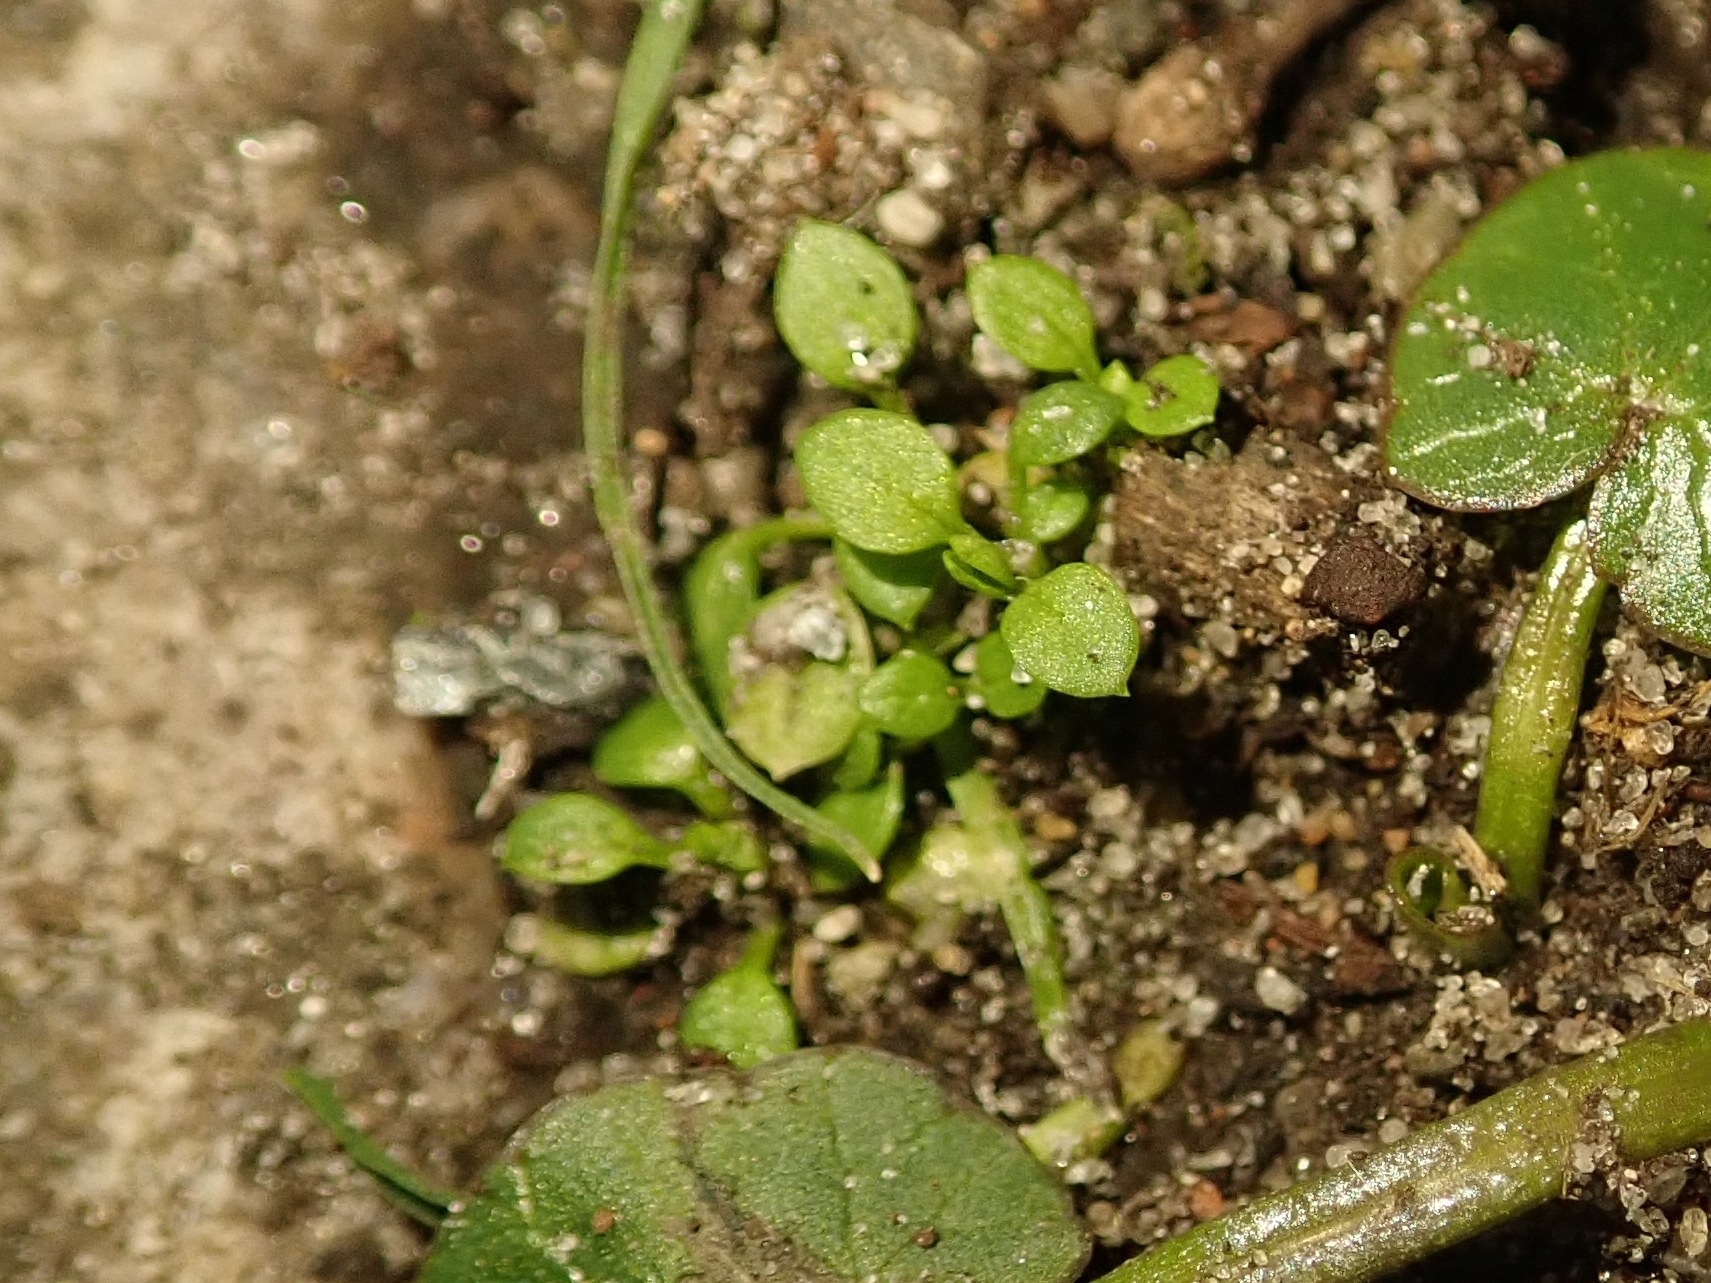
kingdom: Plantae
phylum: Tracheophyta
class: Magnoliopsida
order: Caryophyllales
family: Caryophyllaceae
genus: Stellaria
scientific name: Stellaria media
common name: Common chickweed
